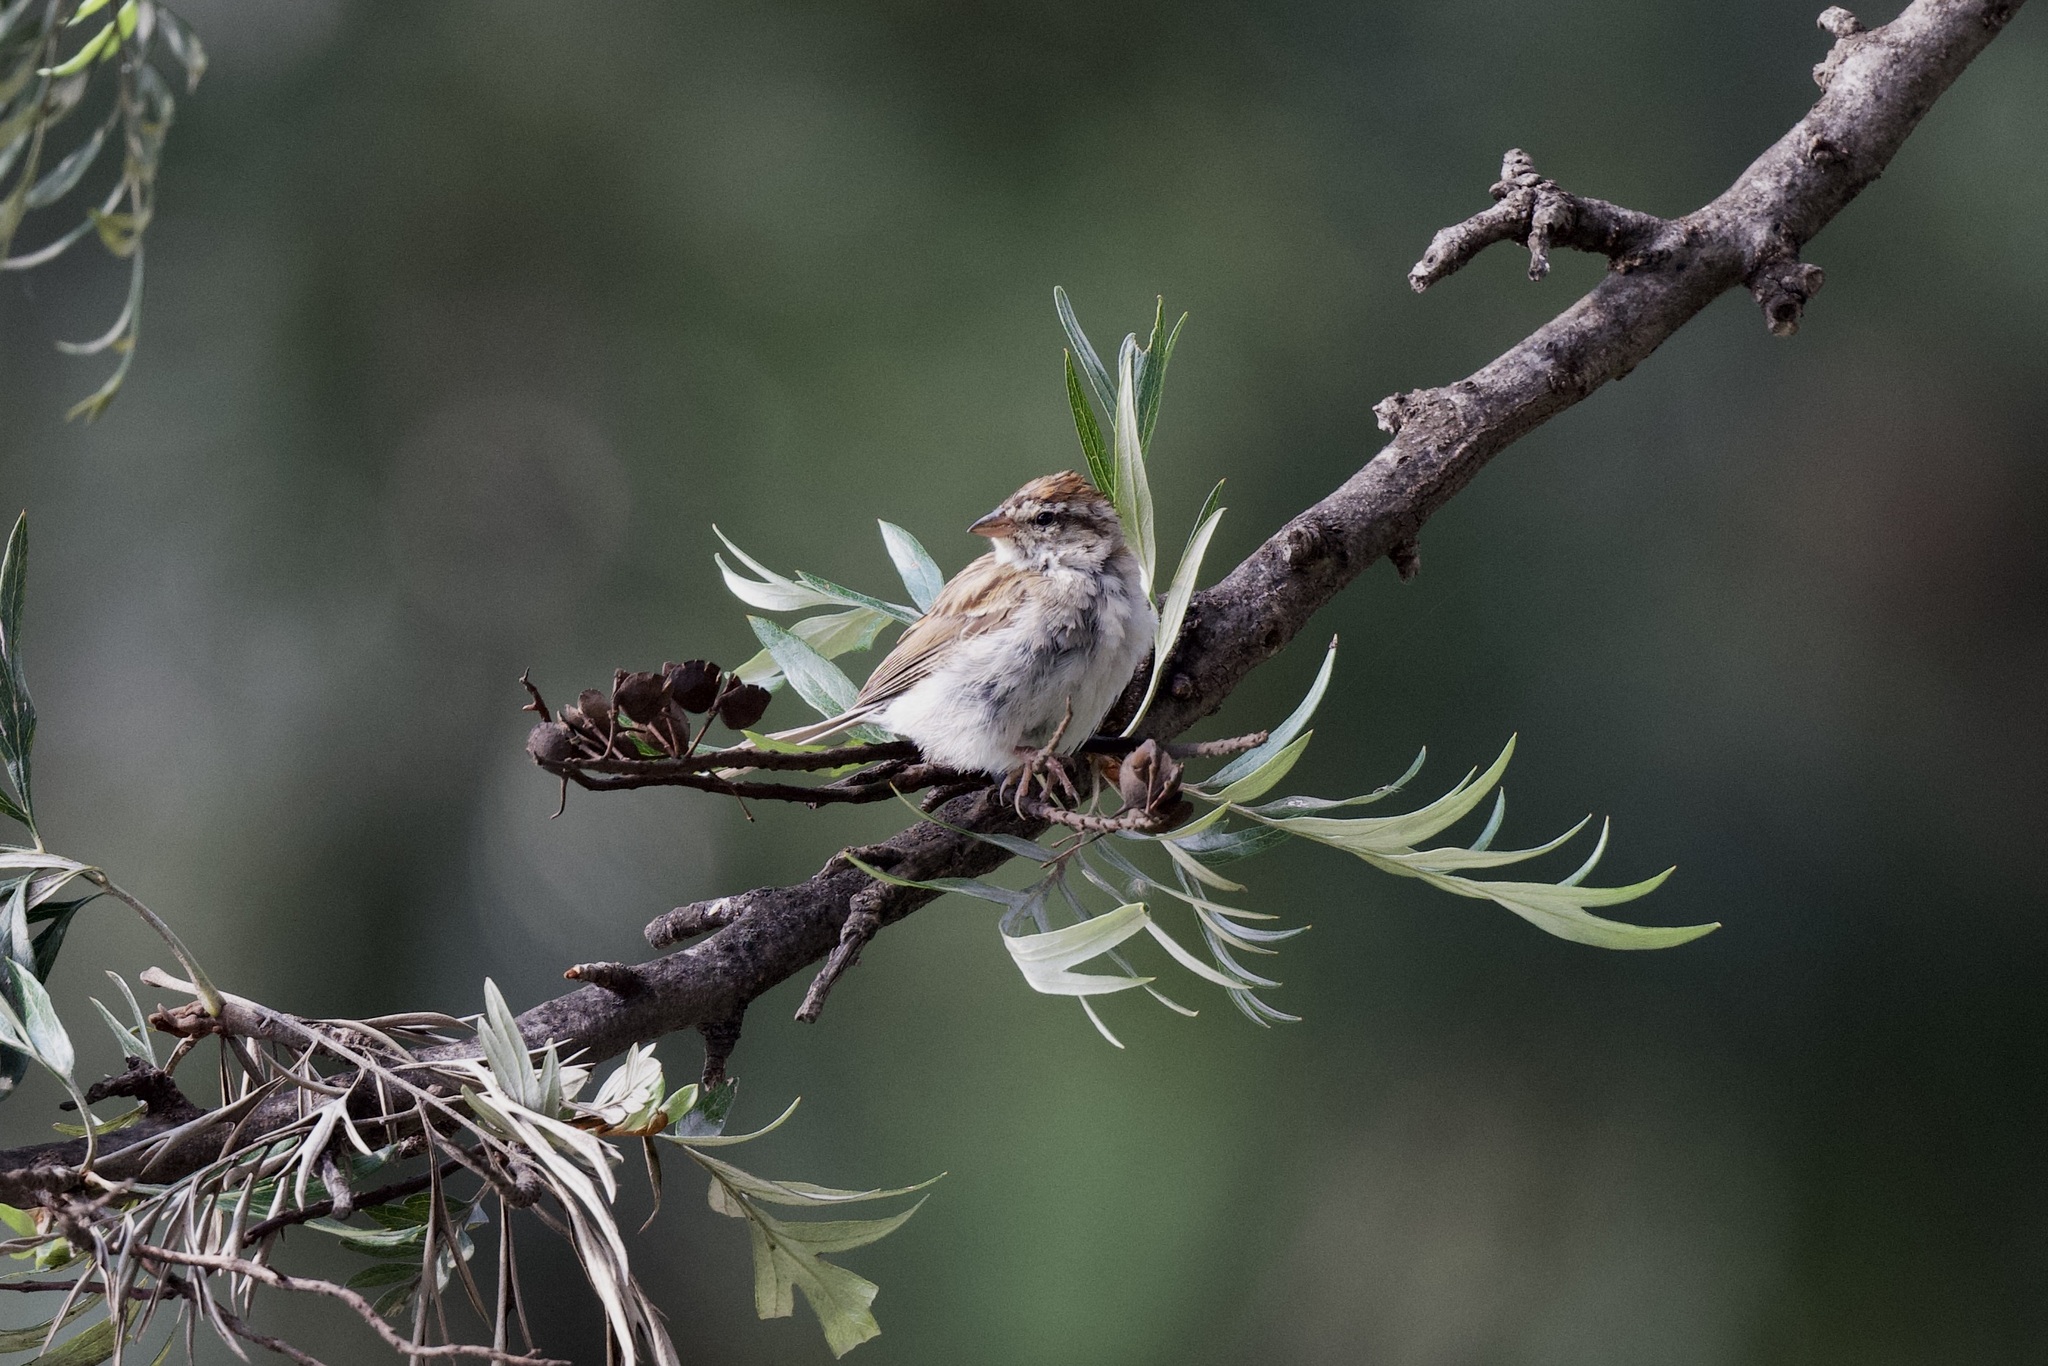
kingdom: Animalia
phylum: Chordata
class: Aves
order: Passeriformes
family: Passerellidae
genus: Spizella
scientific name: Spizella passerina
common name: Chipping sparrow
